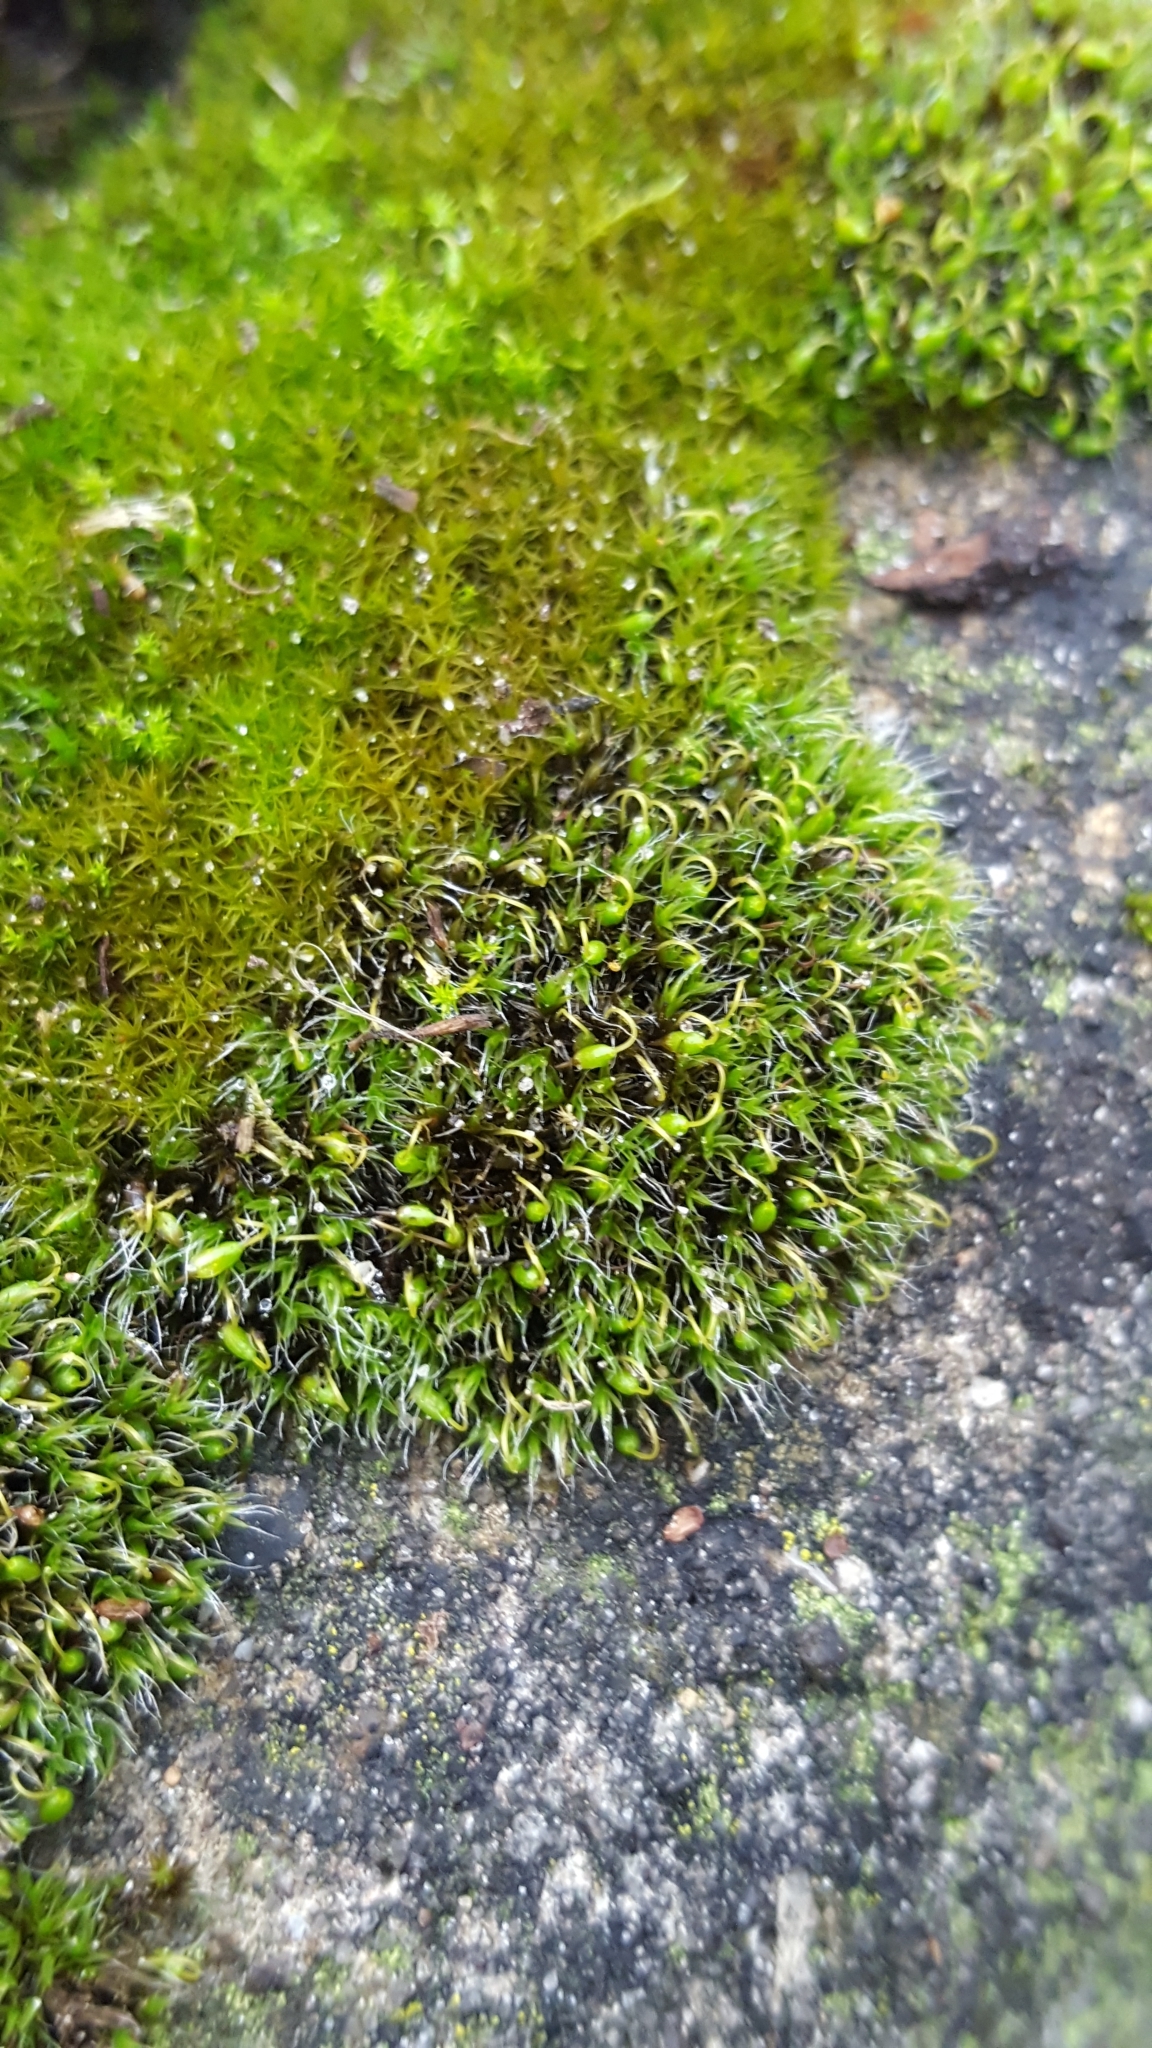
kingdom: Plantae
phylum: Bryophyta
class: Bryopsida
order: Grimmiales
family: Grimmiaceae
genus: Grimmia
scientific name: Grimmia pulvinata
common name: Grey-cushioned grimmia
